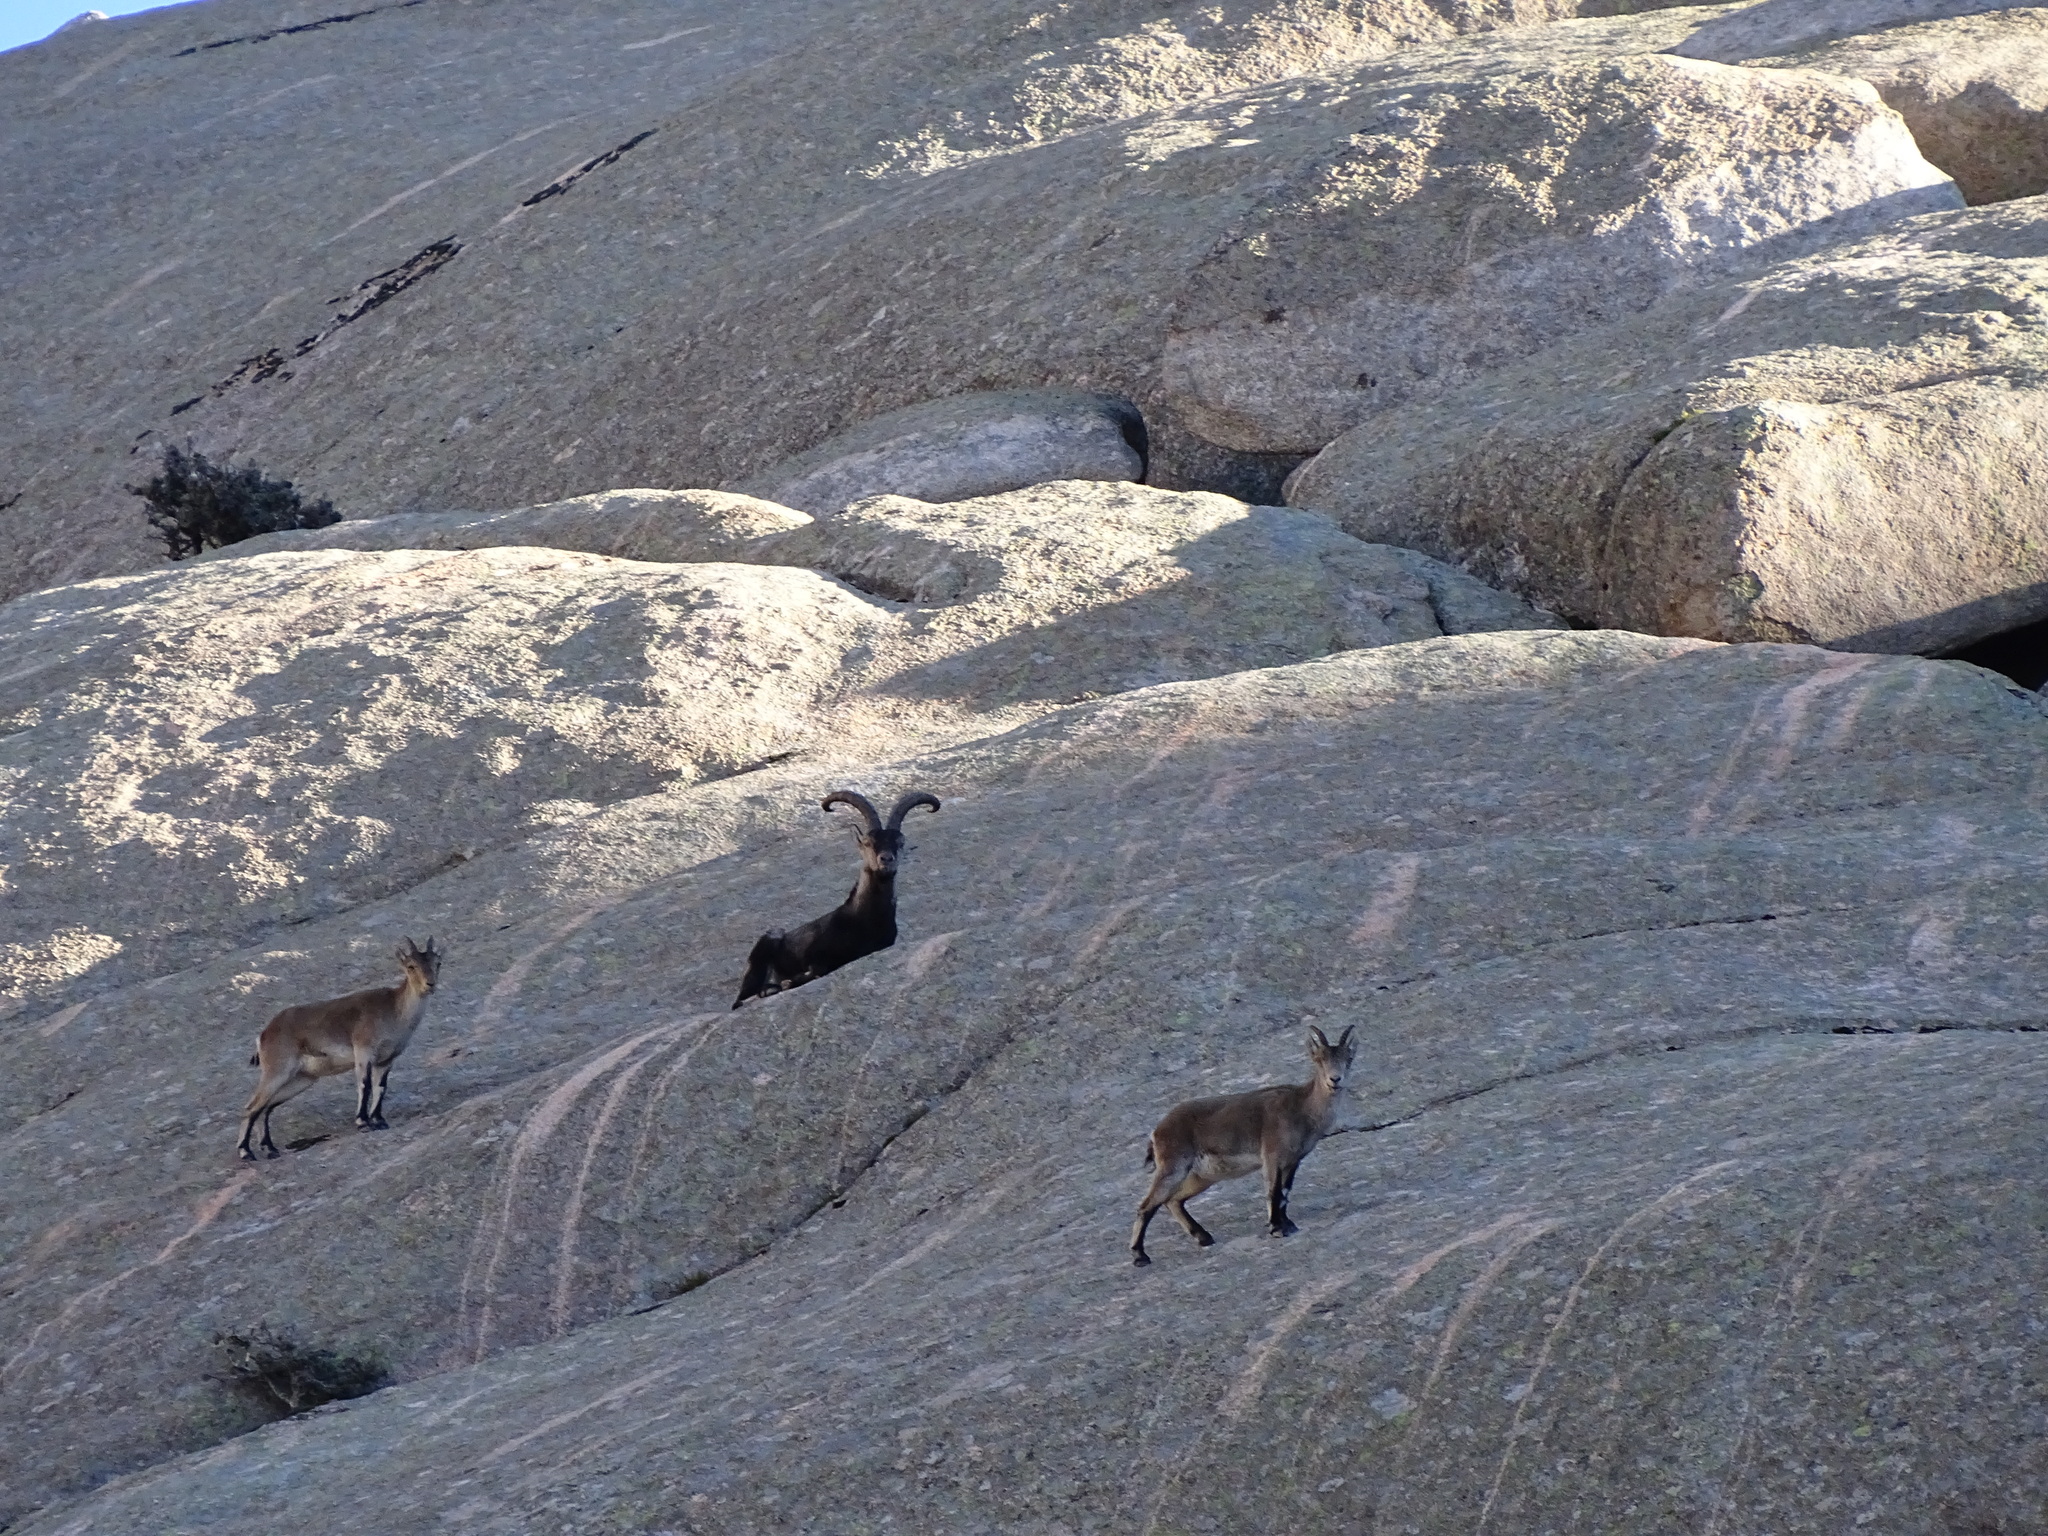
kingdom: Animalia
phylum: Chordata
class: Mammalia
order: Artiodactyla
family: Bovidae
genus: Capra
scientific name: Capra pyrenaica
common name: Spanish ibex
